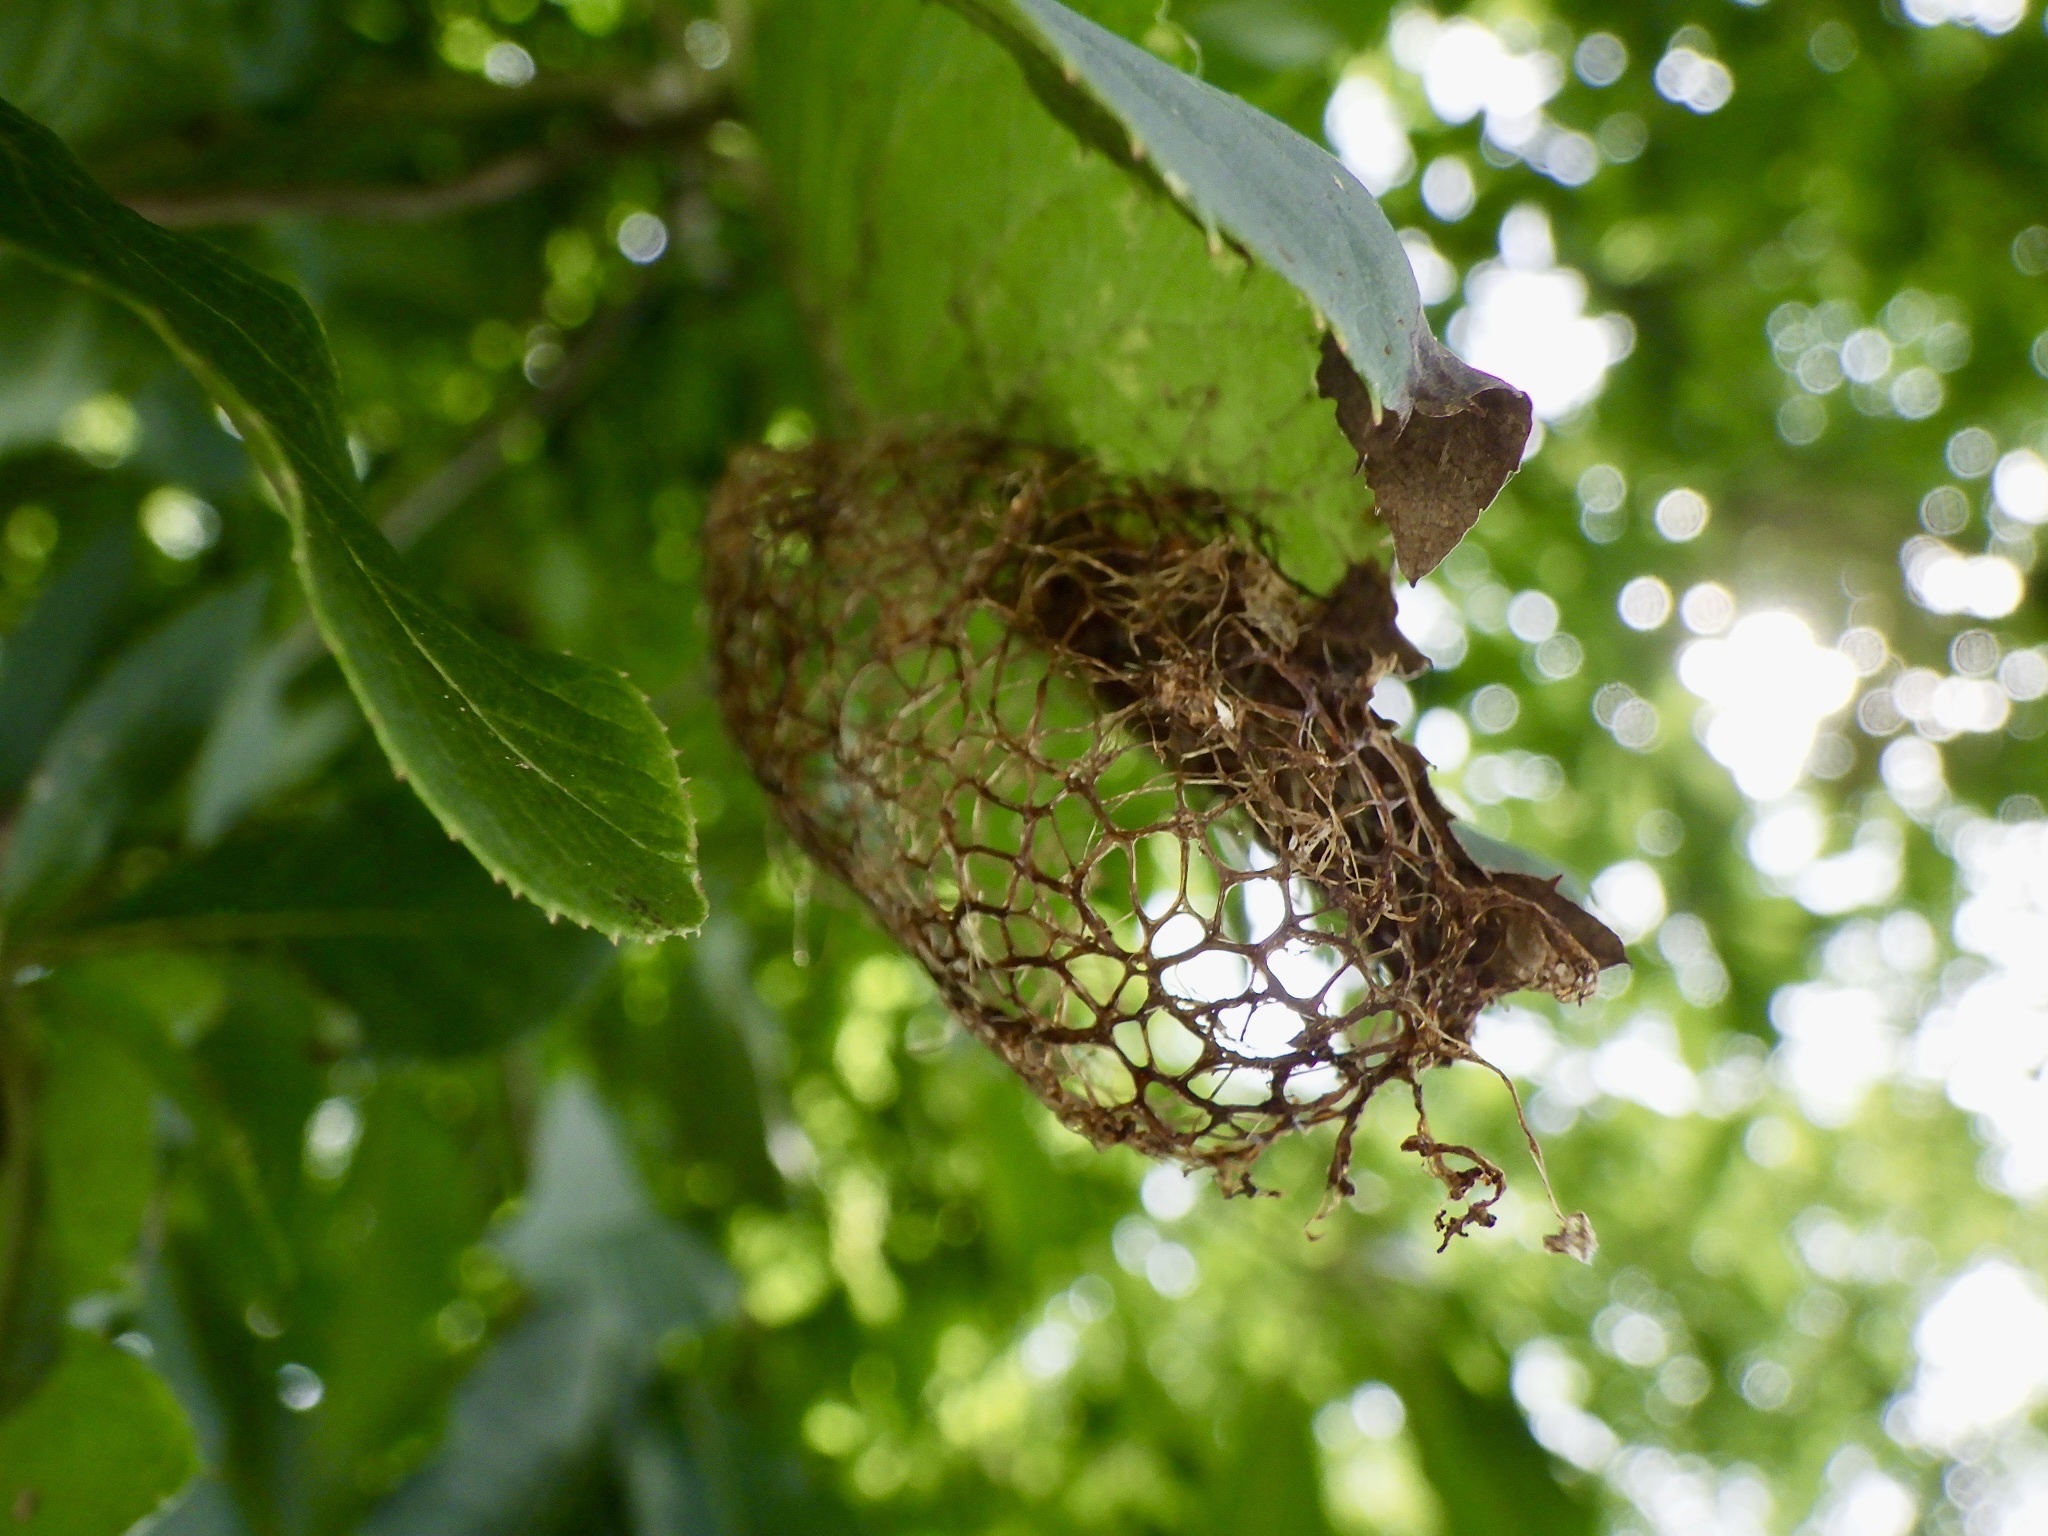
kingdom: Animalia
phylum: Arthropoda
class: Insecta
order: Lepidoptera
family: Saturniidae
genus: Saturnia
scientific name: Saturnia japonica
